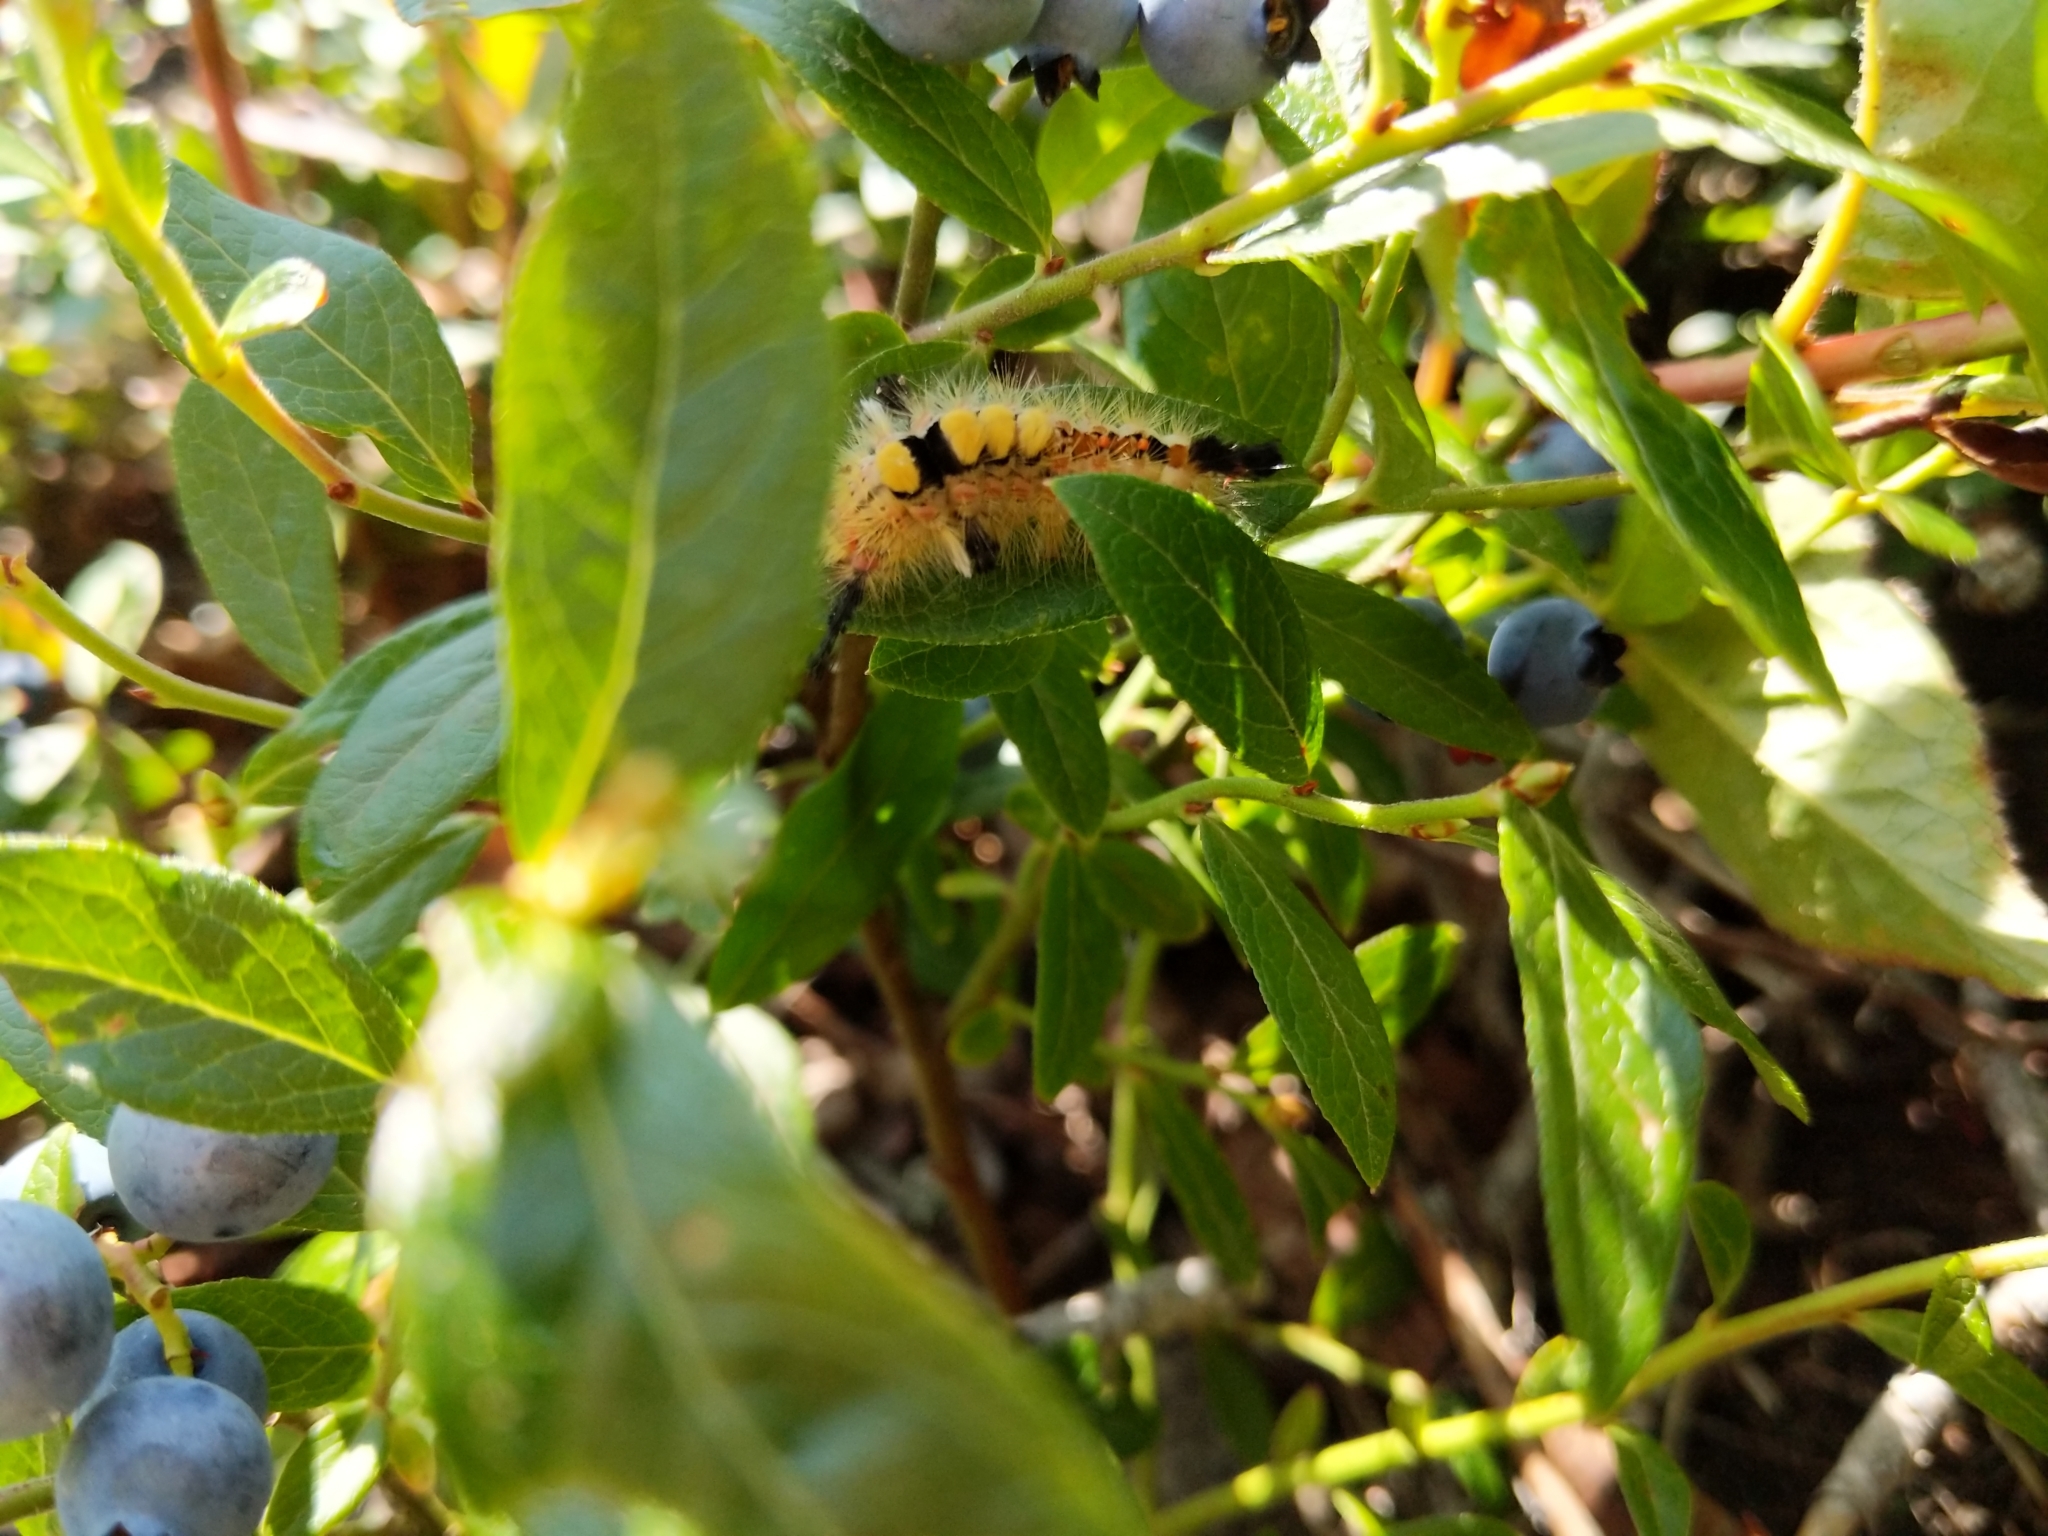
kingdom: Animalia
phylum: Arthropoda
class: Insecta
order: Lepidoptera
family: Erebidae
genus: Orgyia
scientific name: Orgyia antiqua
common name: Vapourer
